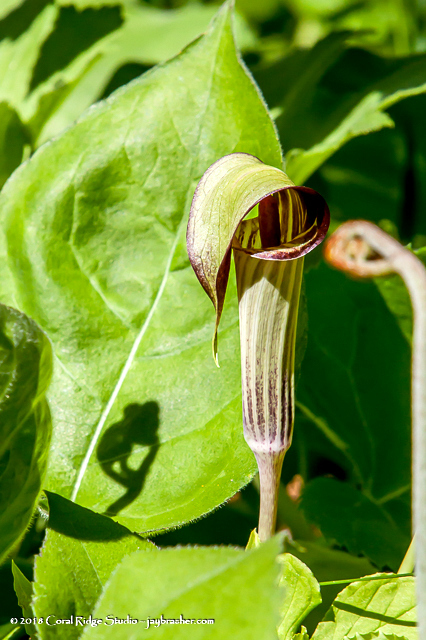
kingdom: Plantae
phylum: Tracheophyta
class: Liliopsida
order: Alismatales
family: Araceae
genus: Arisaema
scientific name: Arisaema triphyllum
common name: Jack-in-the-pulpit
